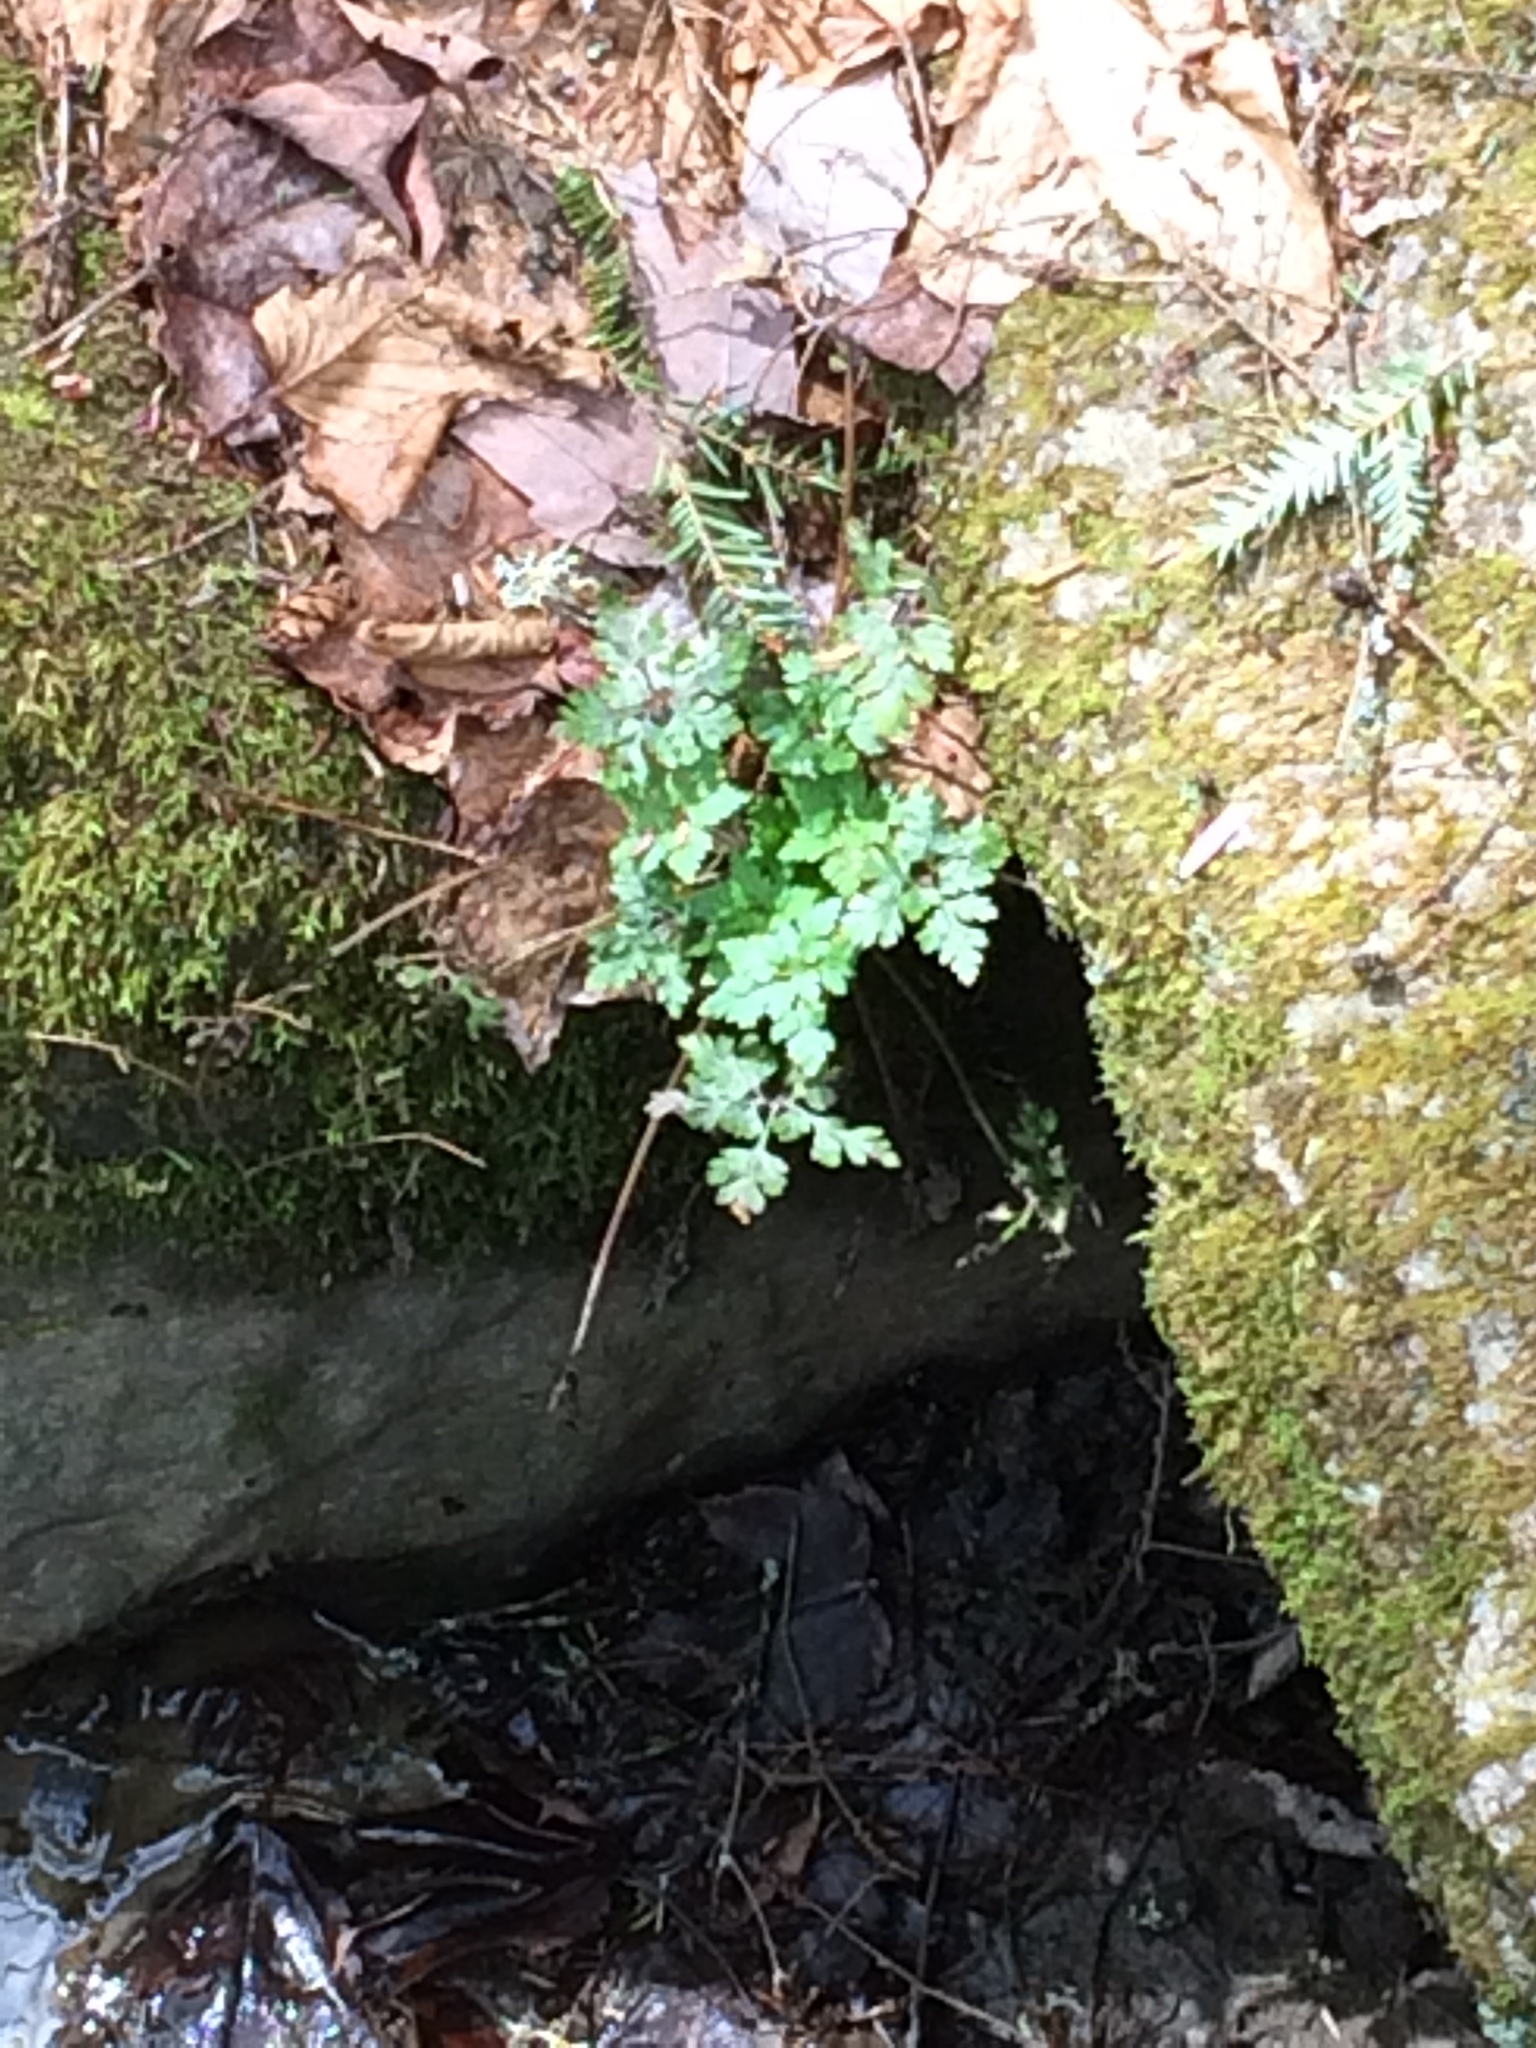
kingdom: Plantae
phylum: Tracheophyta
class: Magnoliopsida
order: Geraniales
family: Geraniaceae
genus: Geranium
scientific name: Geranium robertianum
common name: Herb-robert
